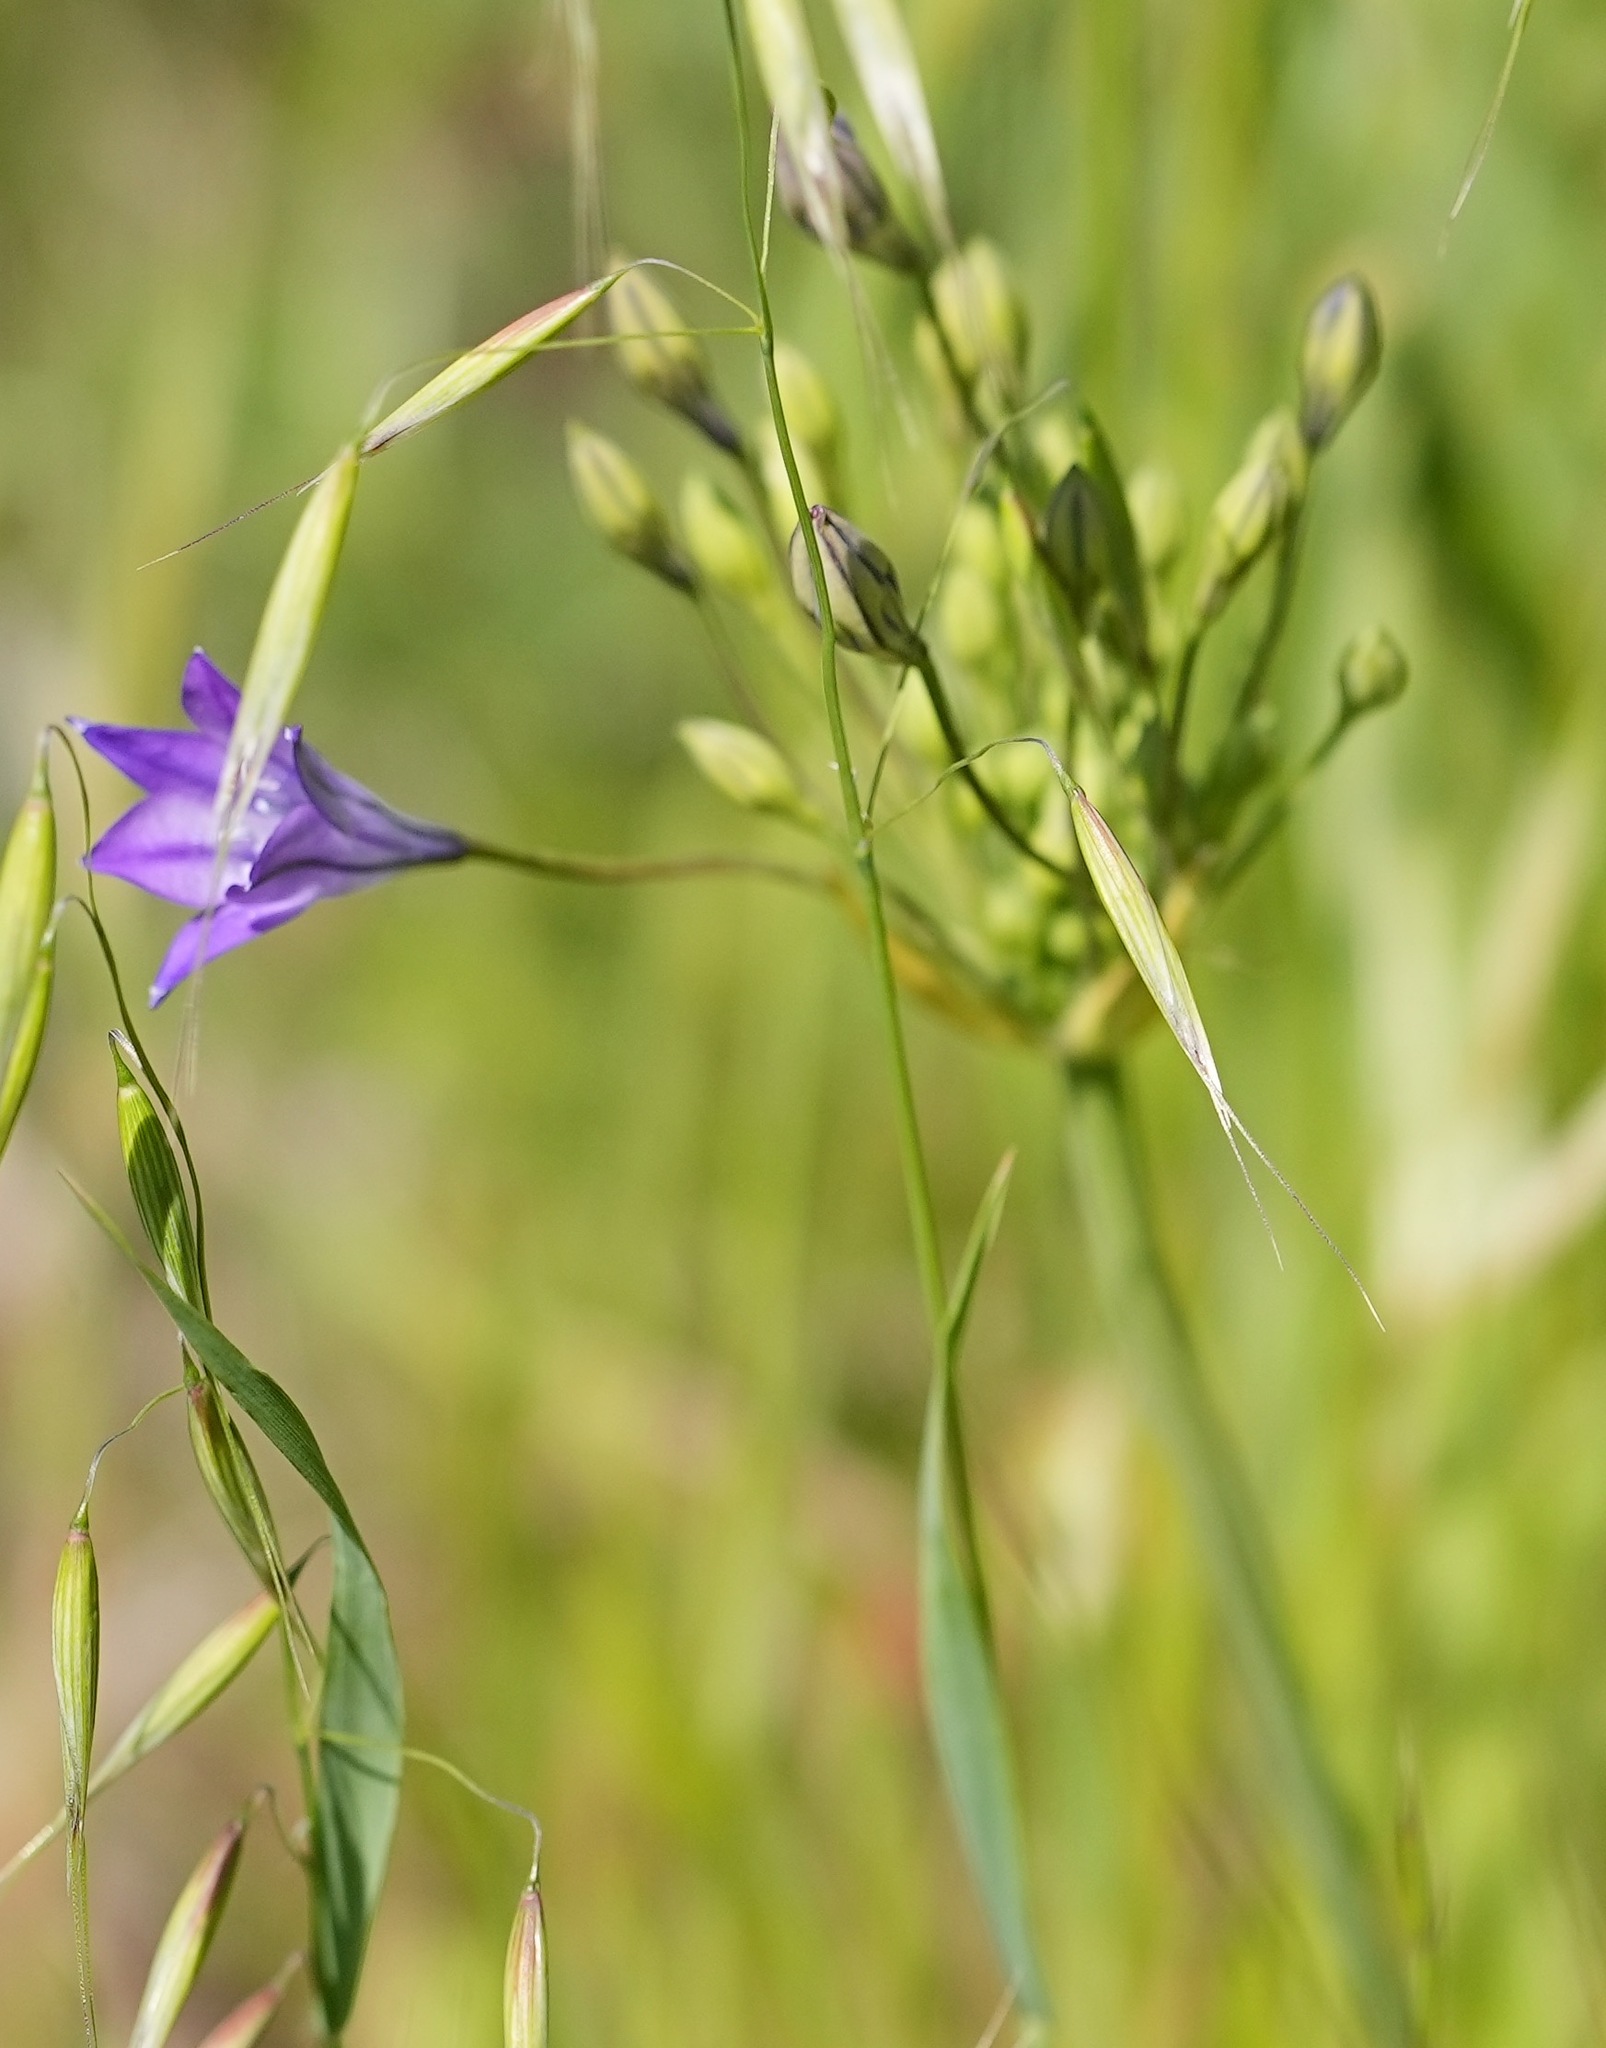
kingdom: Plantae
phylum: Tracheophyta
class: Liliopsida
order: Asparagales
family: Asparagaceae
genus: Triteleia
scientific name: Triteleia laxa
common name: Triplet-lily
